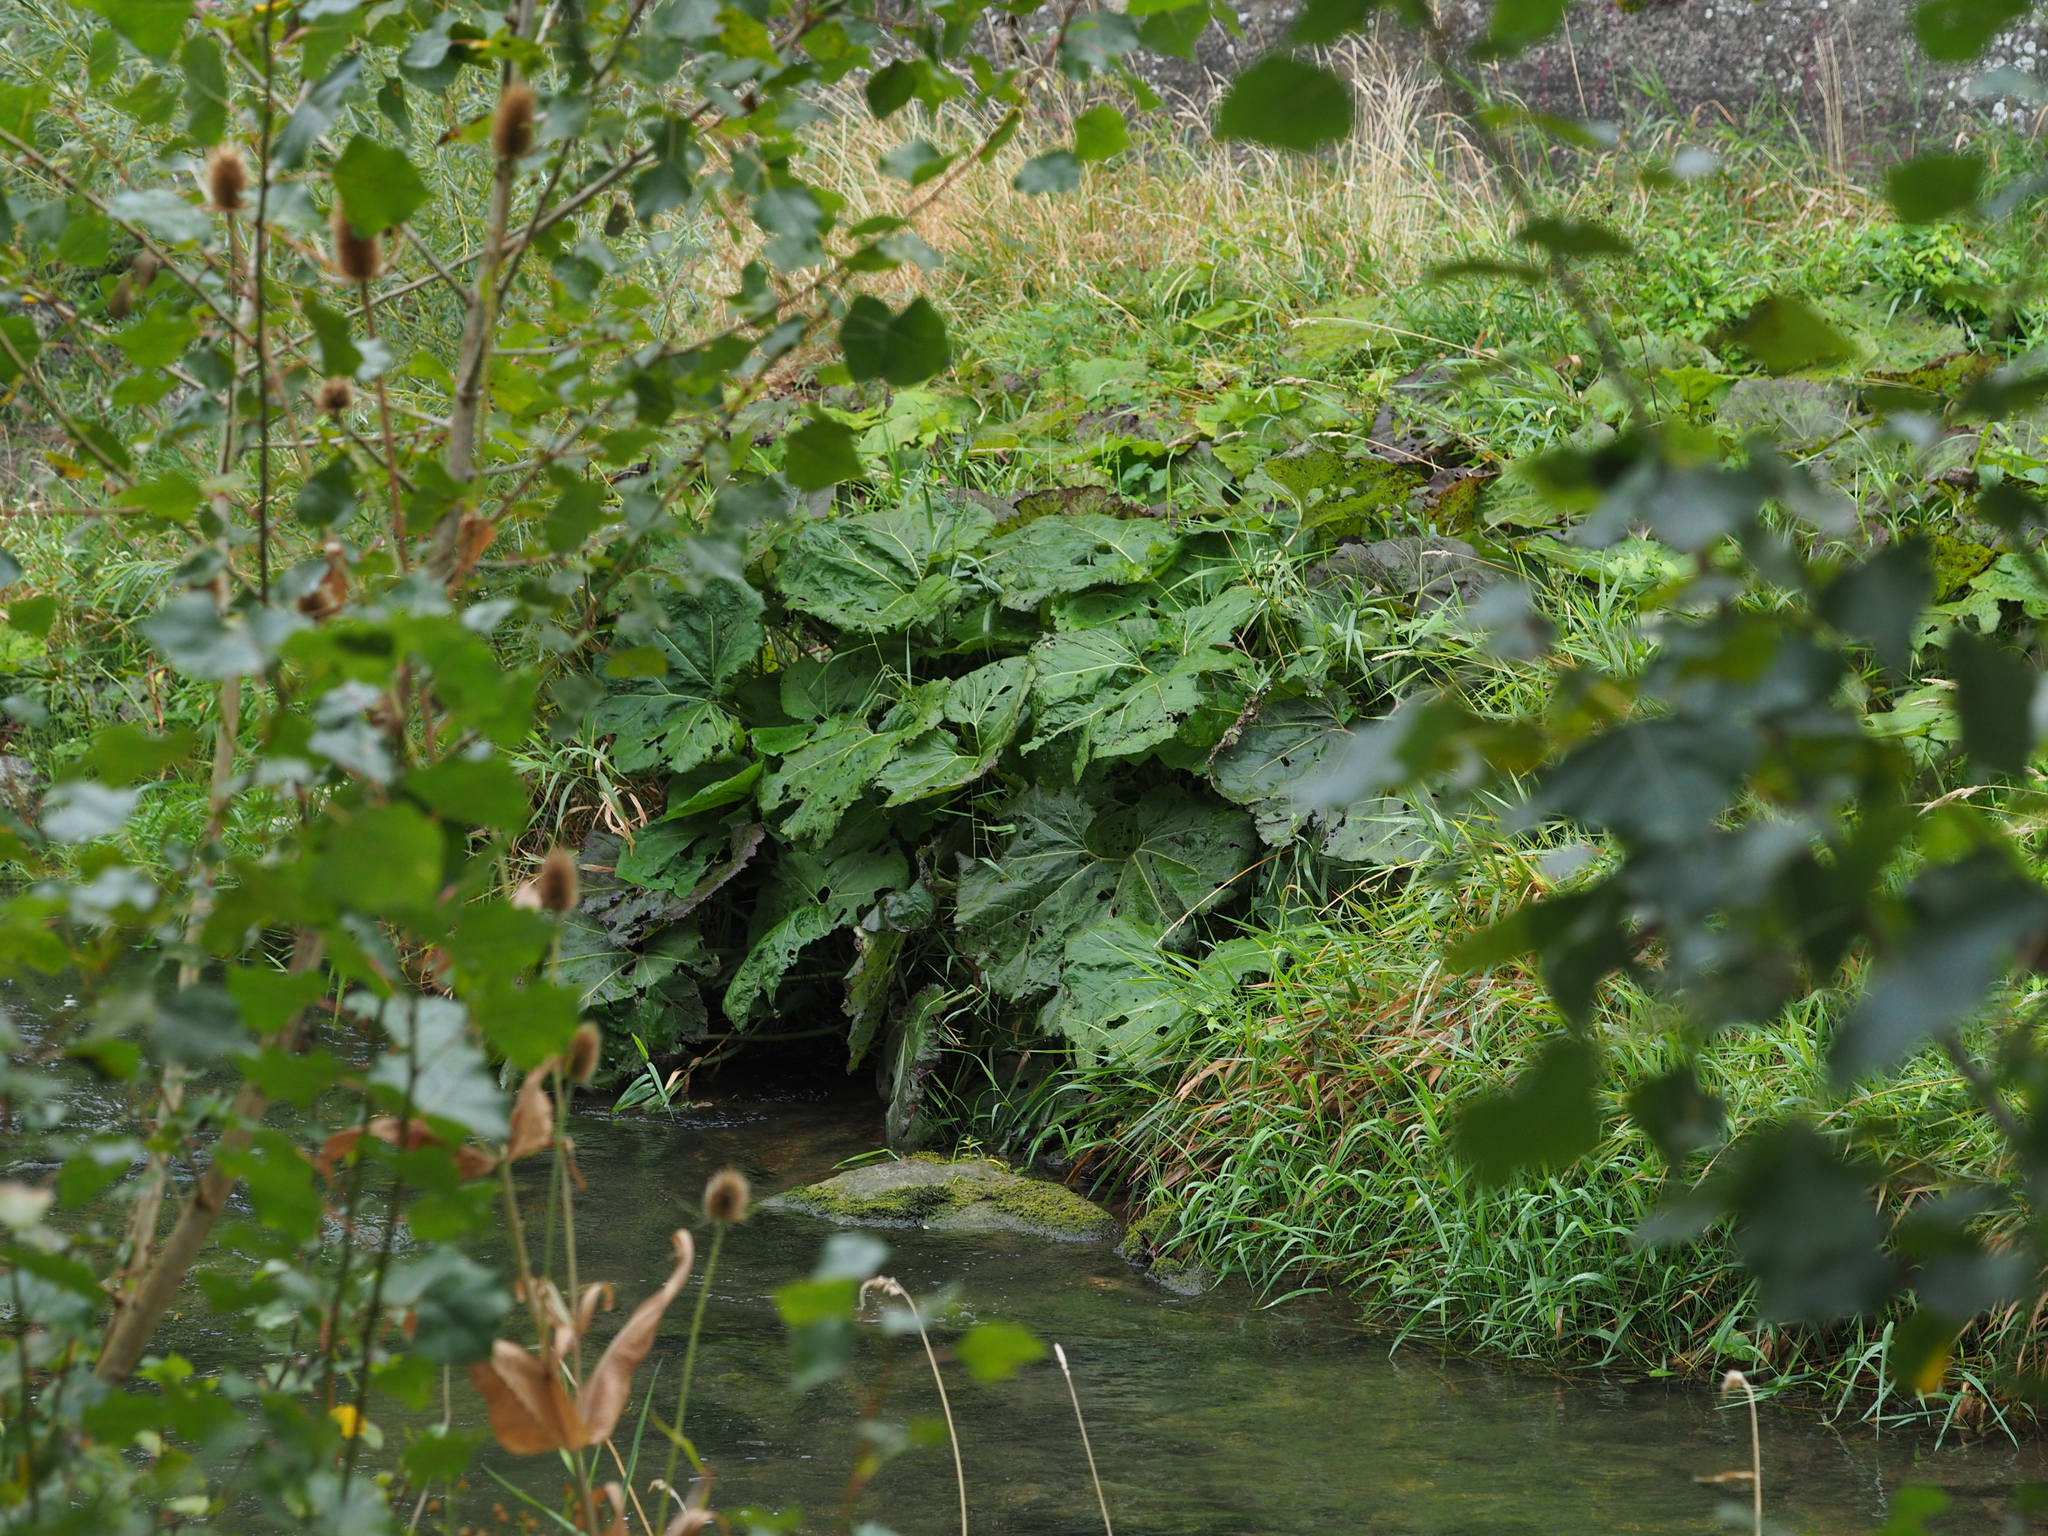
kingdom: Plantae
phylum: Tracheophyta
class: Magnoliopsida
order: Asterales
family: Asteraceae
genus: Petasites
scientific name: Petasites hybridus
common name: Butterbur
